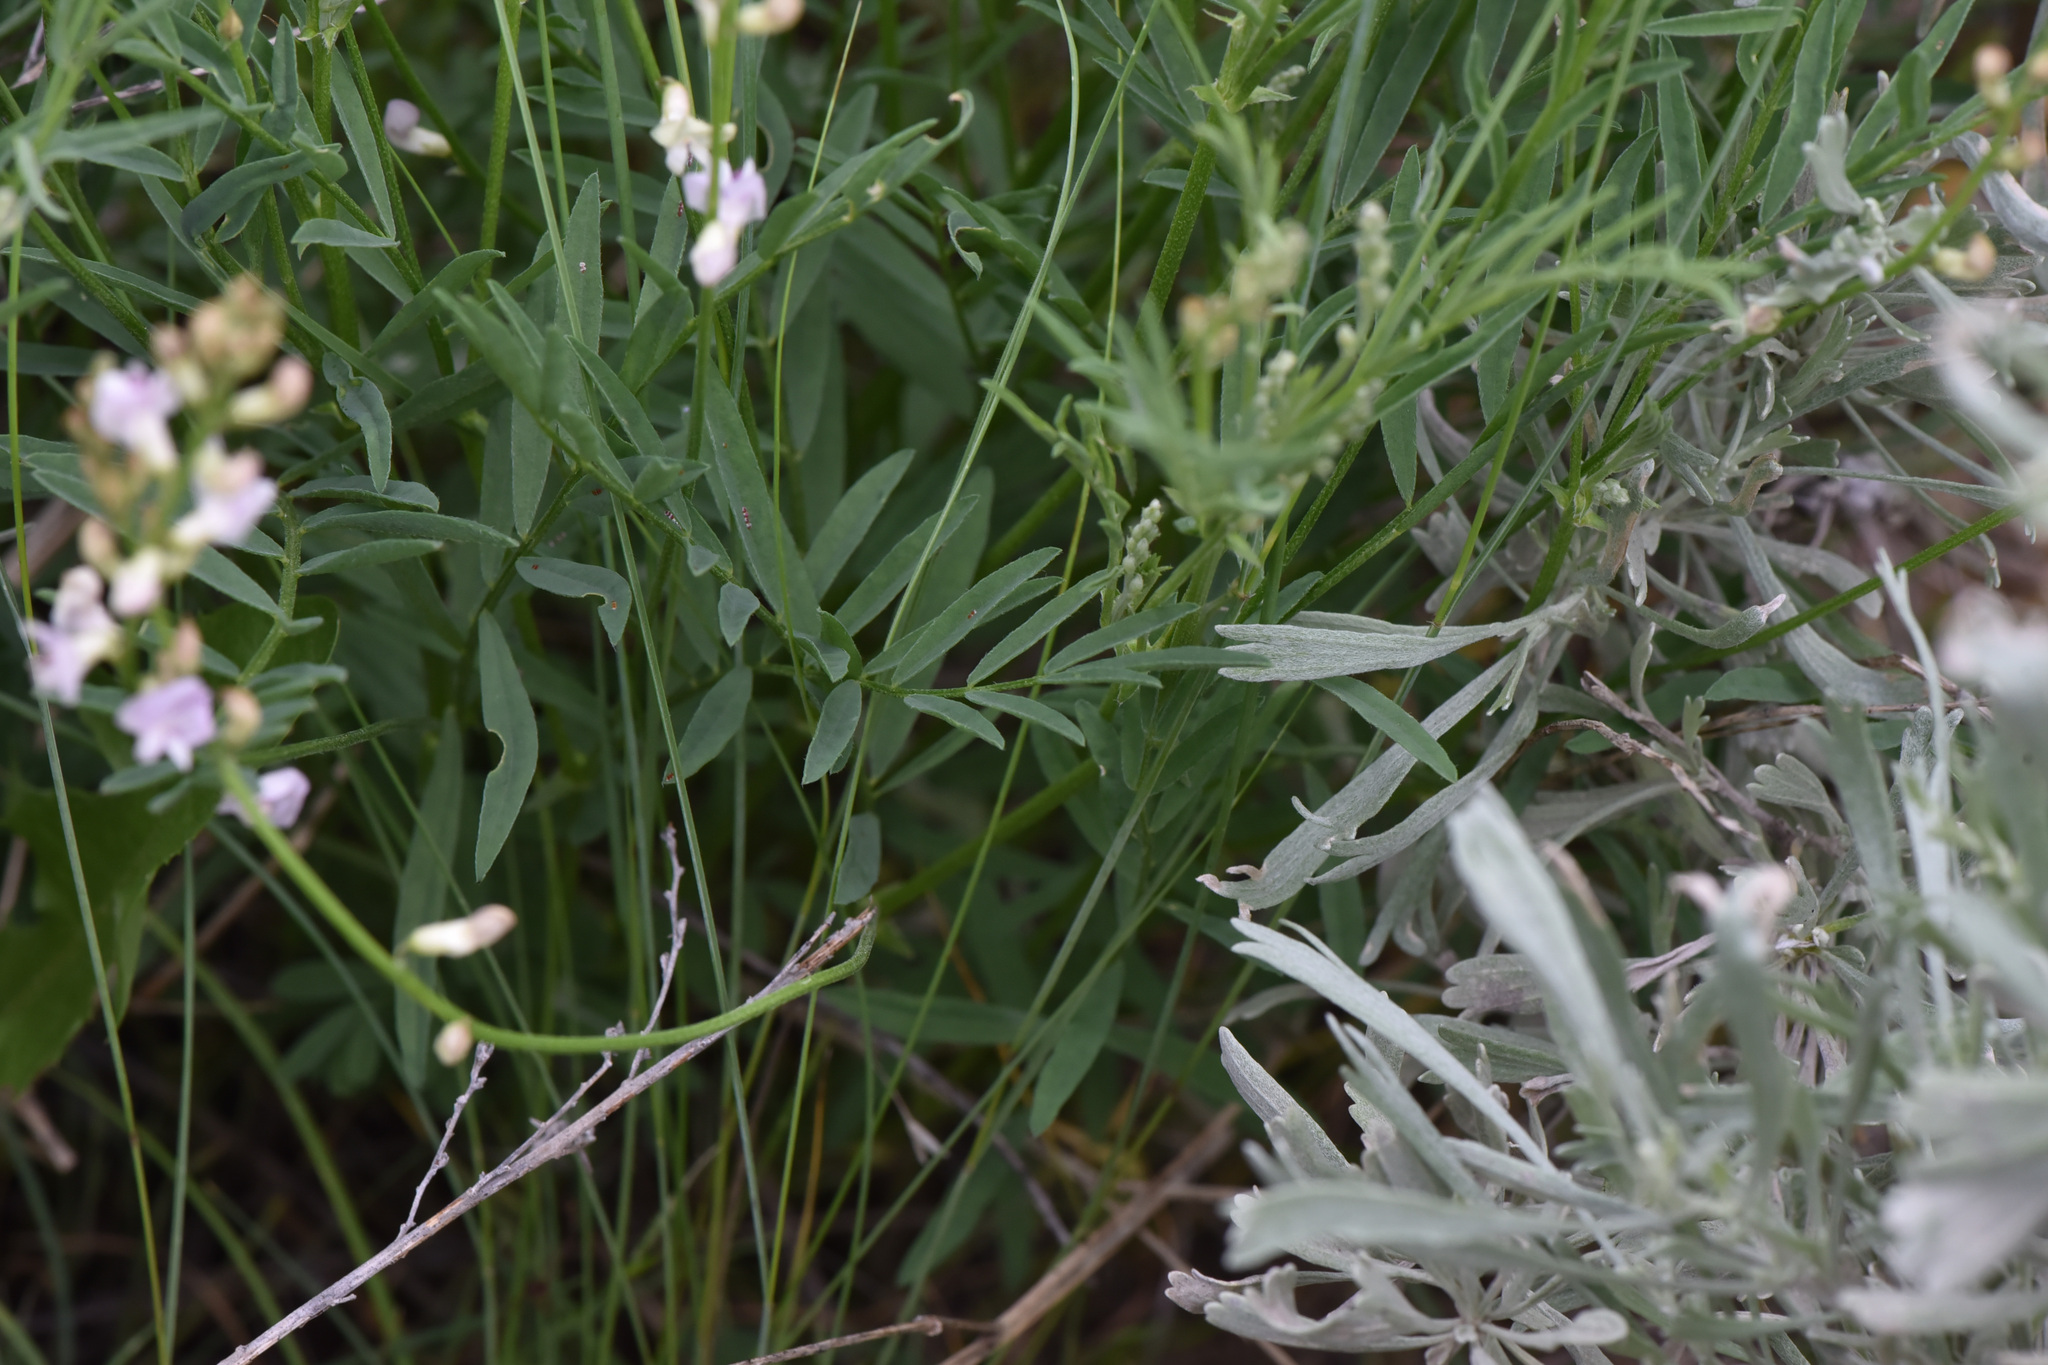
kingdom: Plantae
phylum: Tracheophyta
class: Magnoliopsida
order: Fabales
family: Fabaceae
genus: Astragalus
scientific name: Astragalus miser
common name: Timber milkvetch
